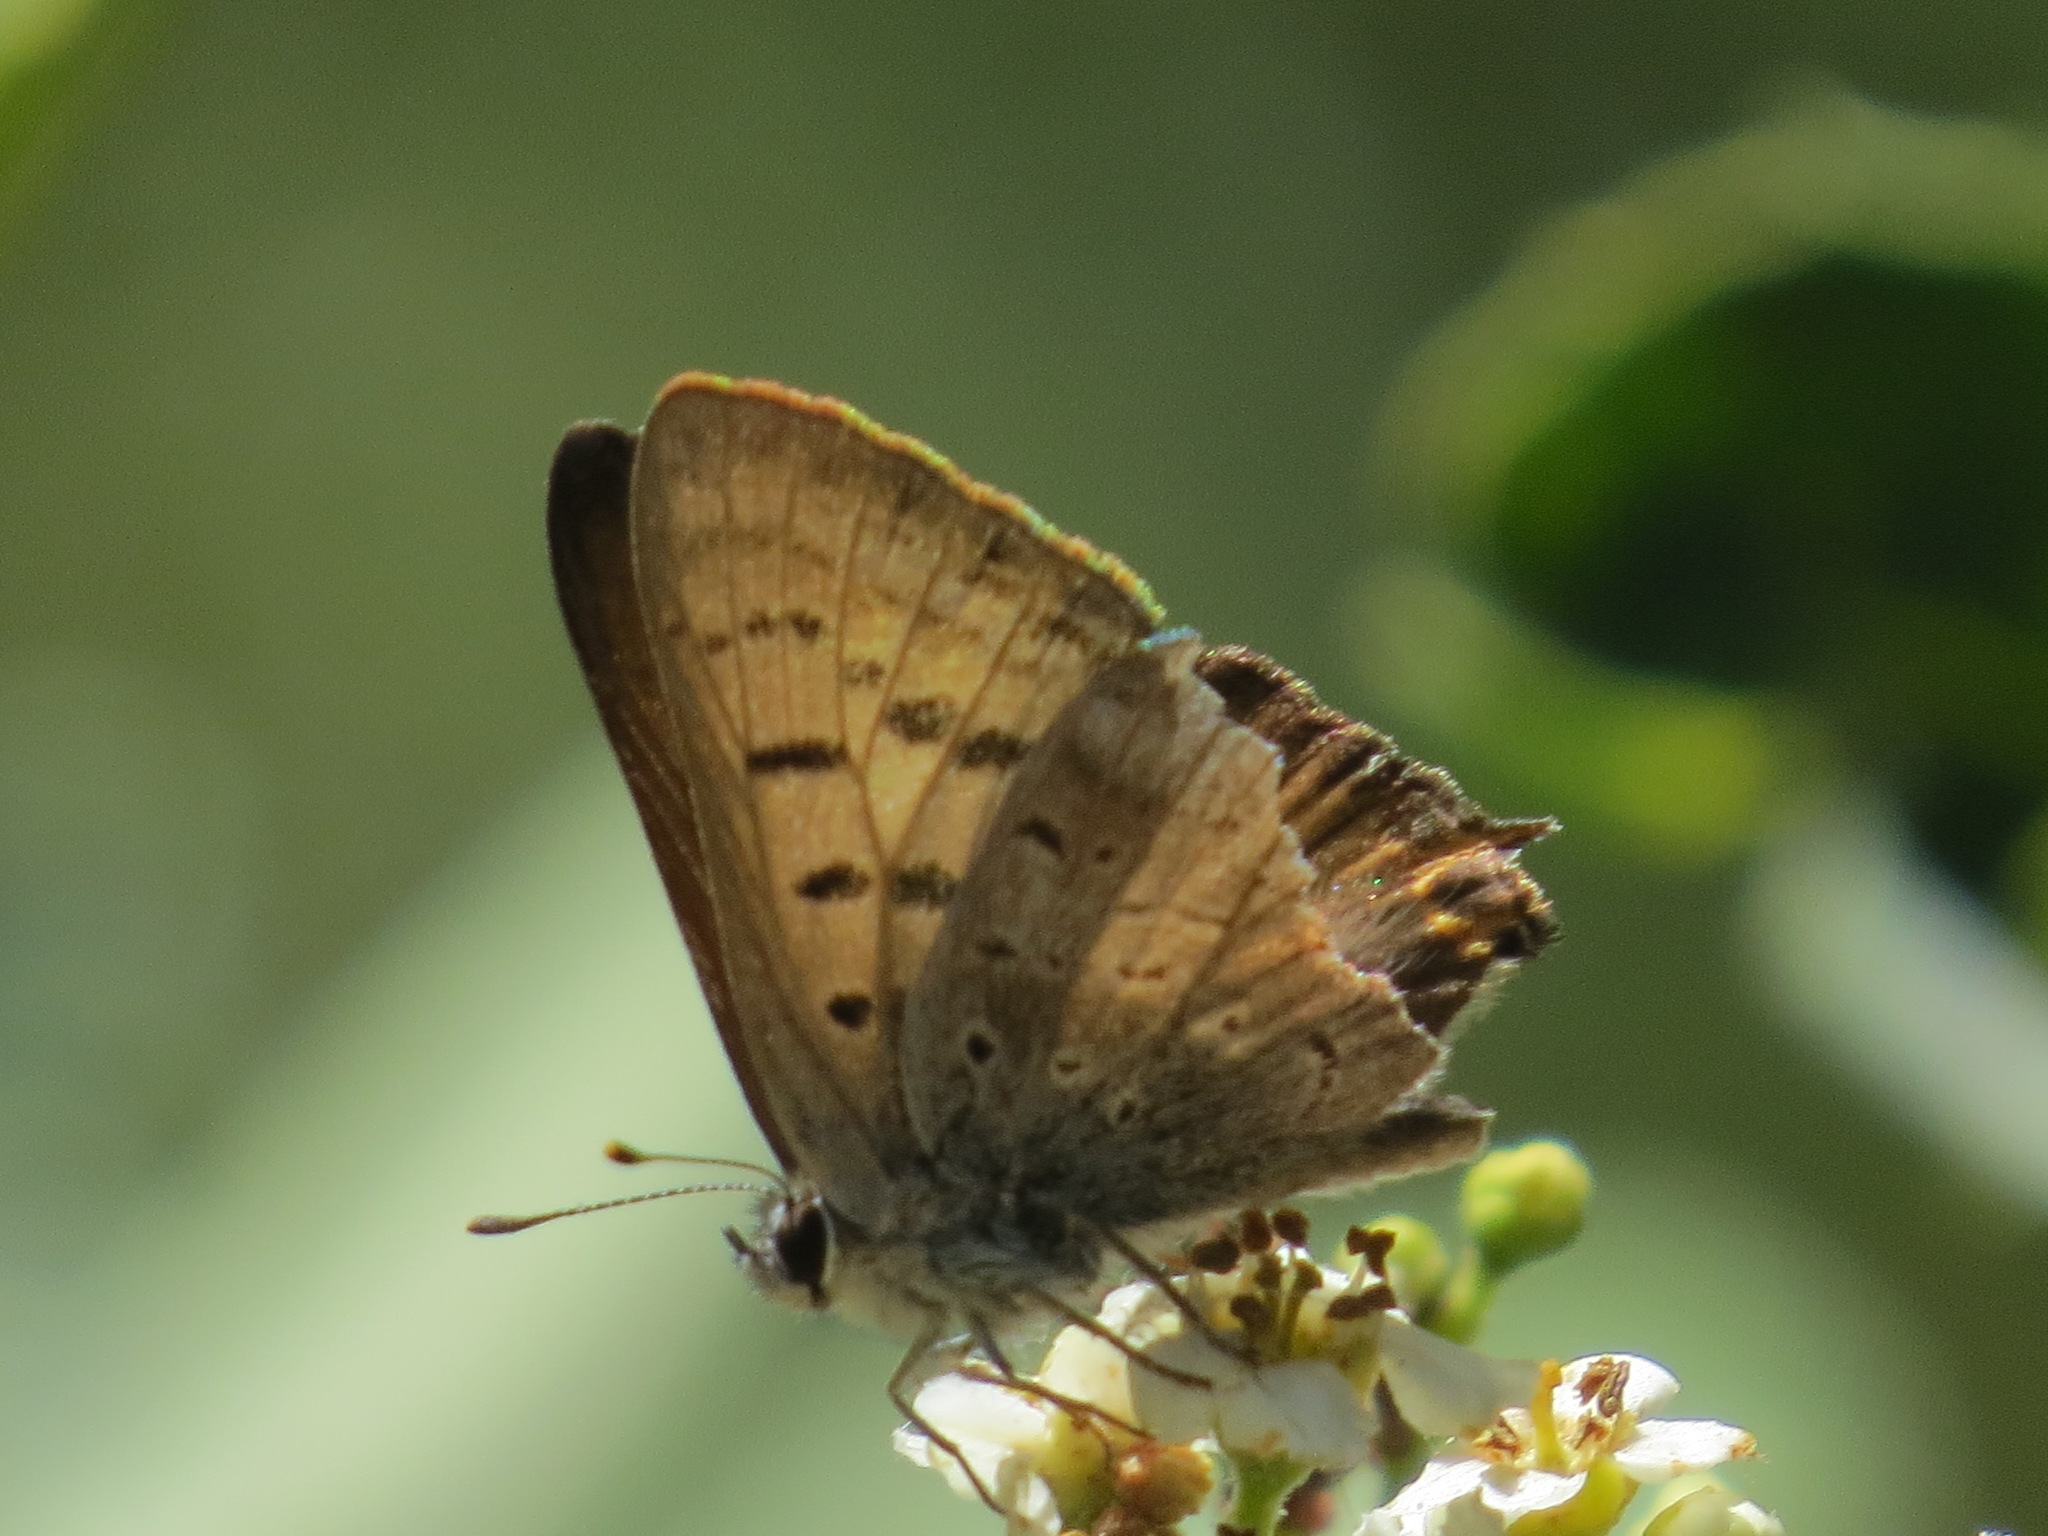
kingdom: Animalia
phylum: Arthropoda
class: Insecta
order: Lepidoptera
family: Lycaenidae
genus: Tharsalea
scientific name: Tharsalea arota
